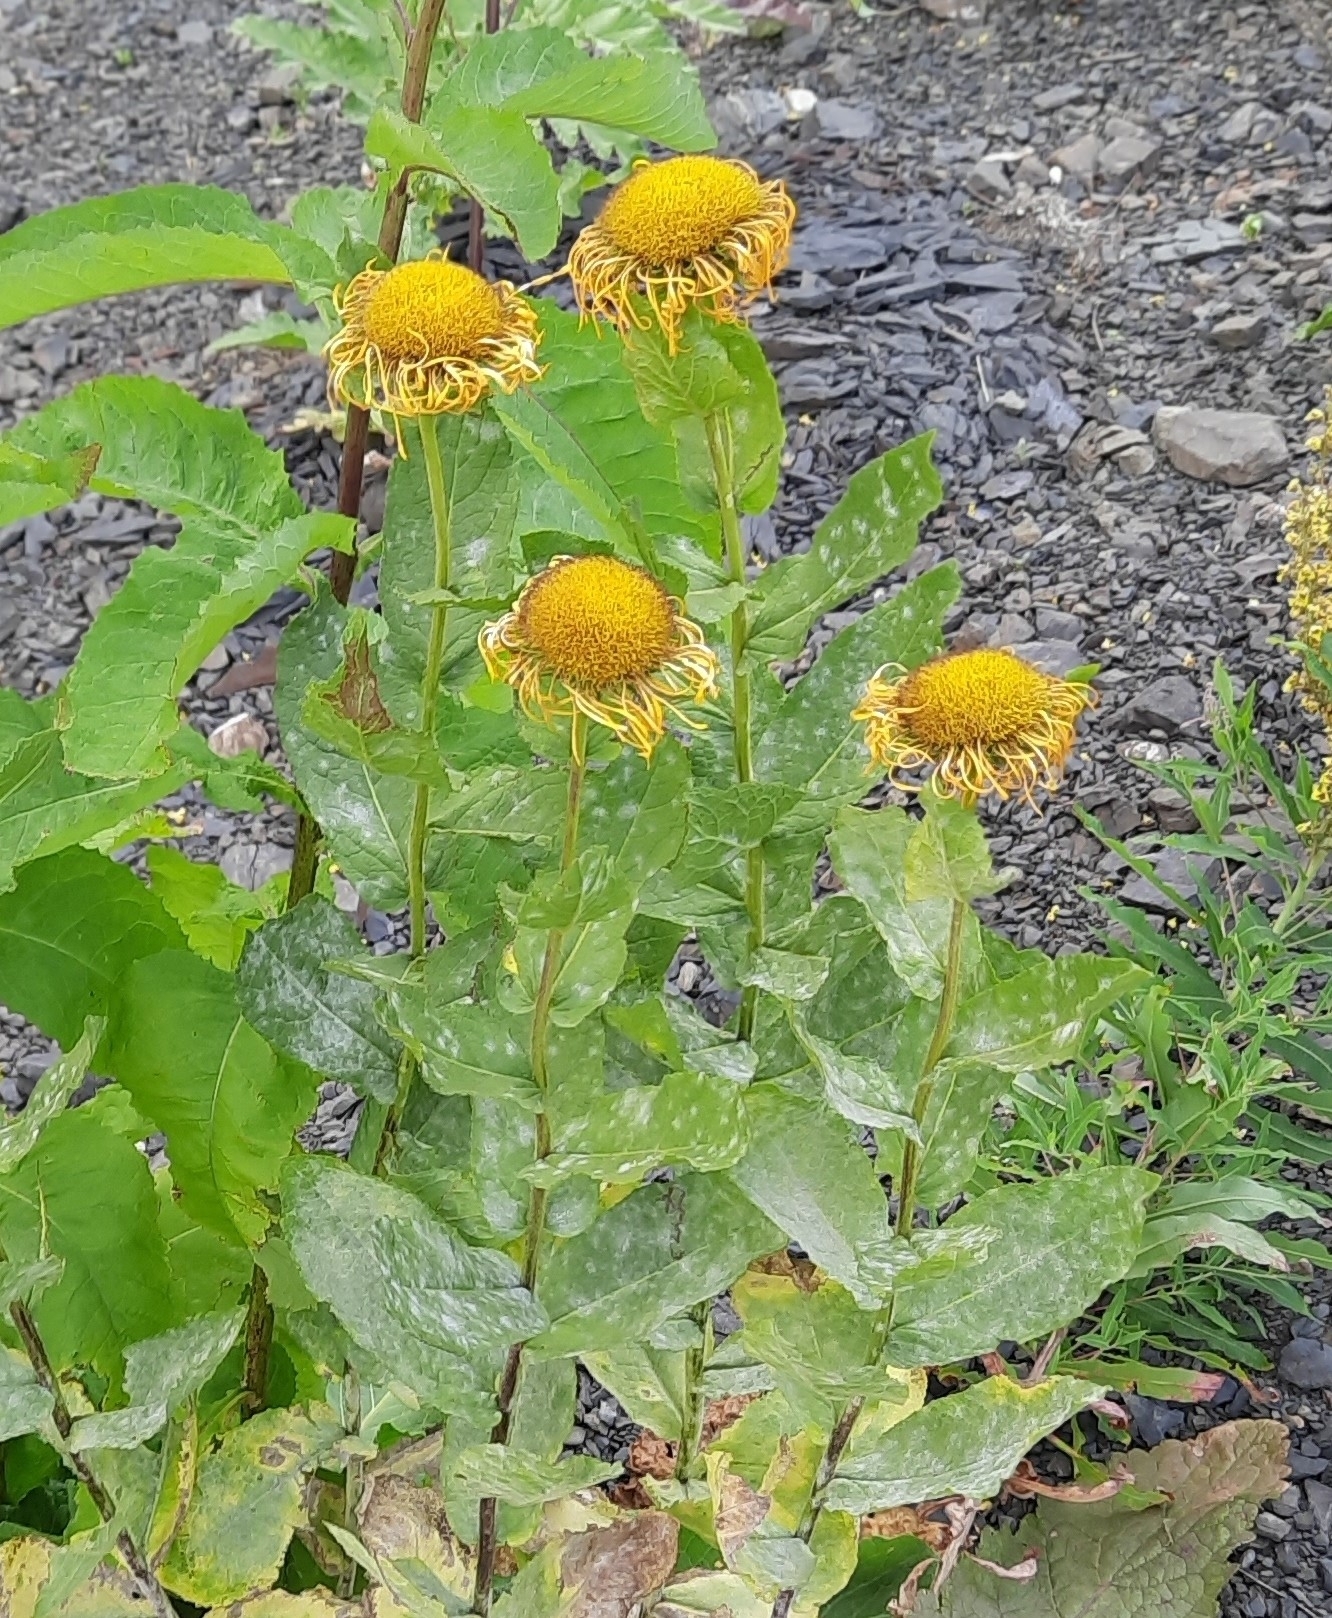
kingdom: Plantae
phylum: Tracheophyta
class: Magnoliopsida
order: Asterales
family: Asteraceae
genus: Pentanema
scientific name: Pentanema orientale
